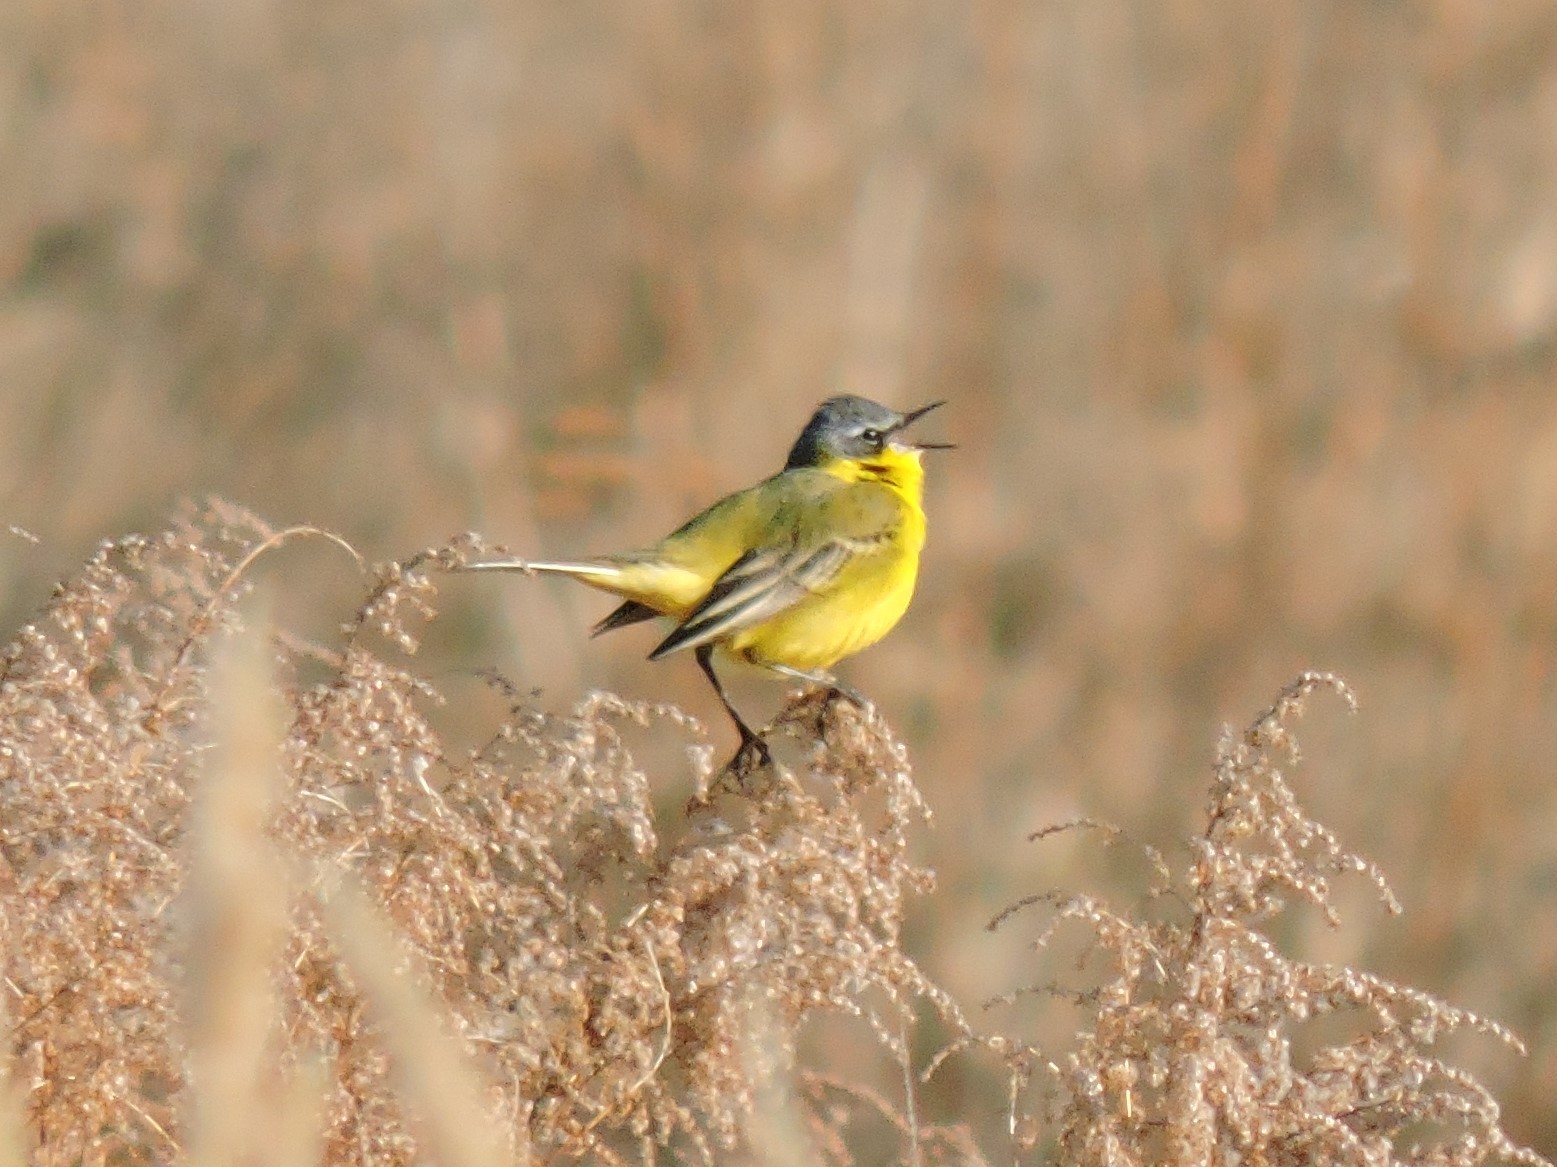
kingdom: Animalia
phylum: Chordata
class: Aves
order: Passeriformes
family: Motacillidae
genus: Motacilla
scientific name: Motacilla flava
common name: Western yellow wagtail
